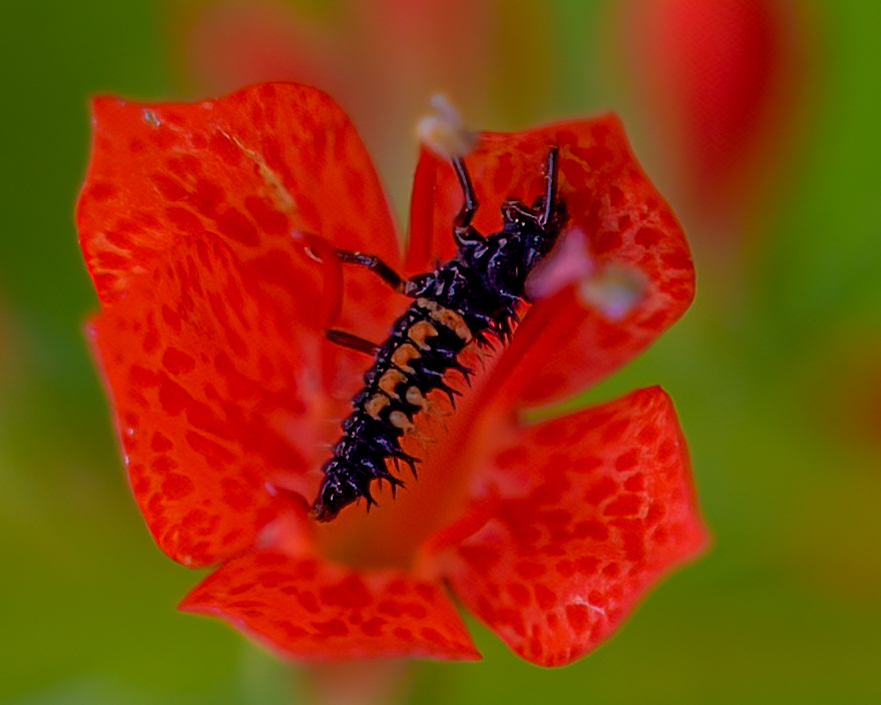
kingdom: Animalia
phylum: Arthropoda
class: Insecta
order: Coleoptera
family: Coccinellidae
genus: Harmonia
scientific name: Harmonia axyridis
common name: Harlequin ladybird
